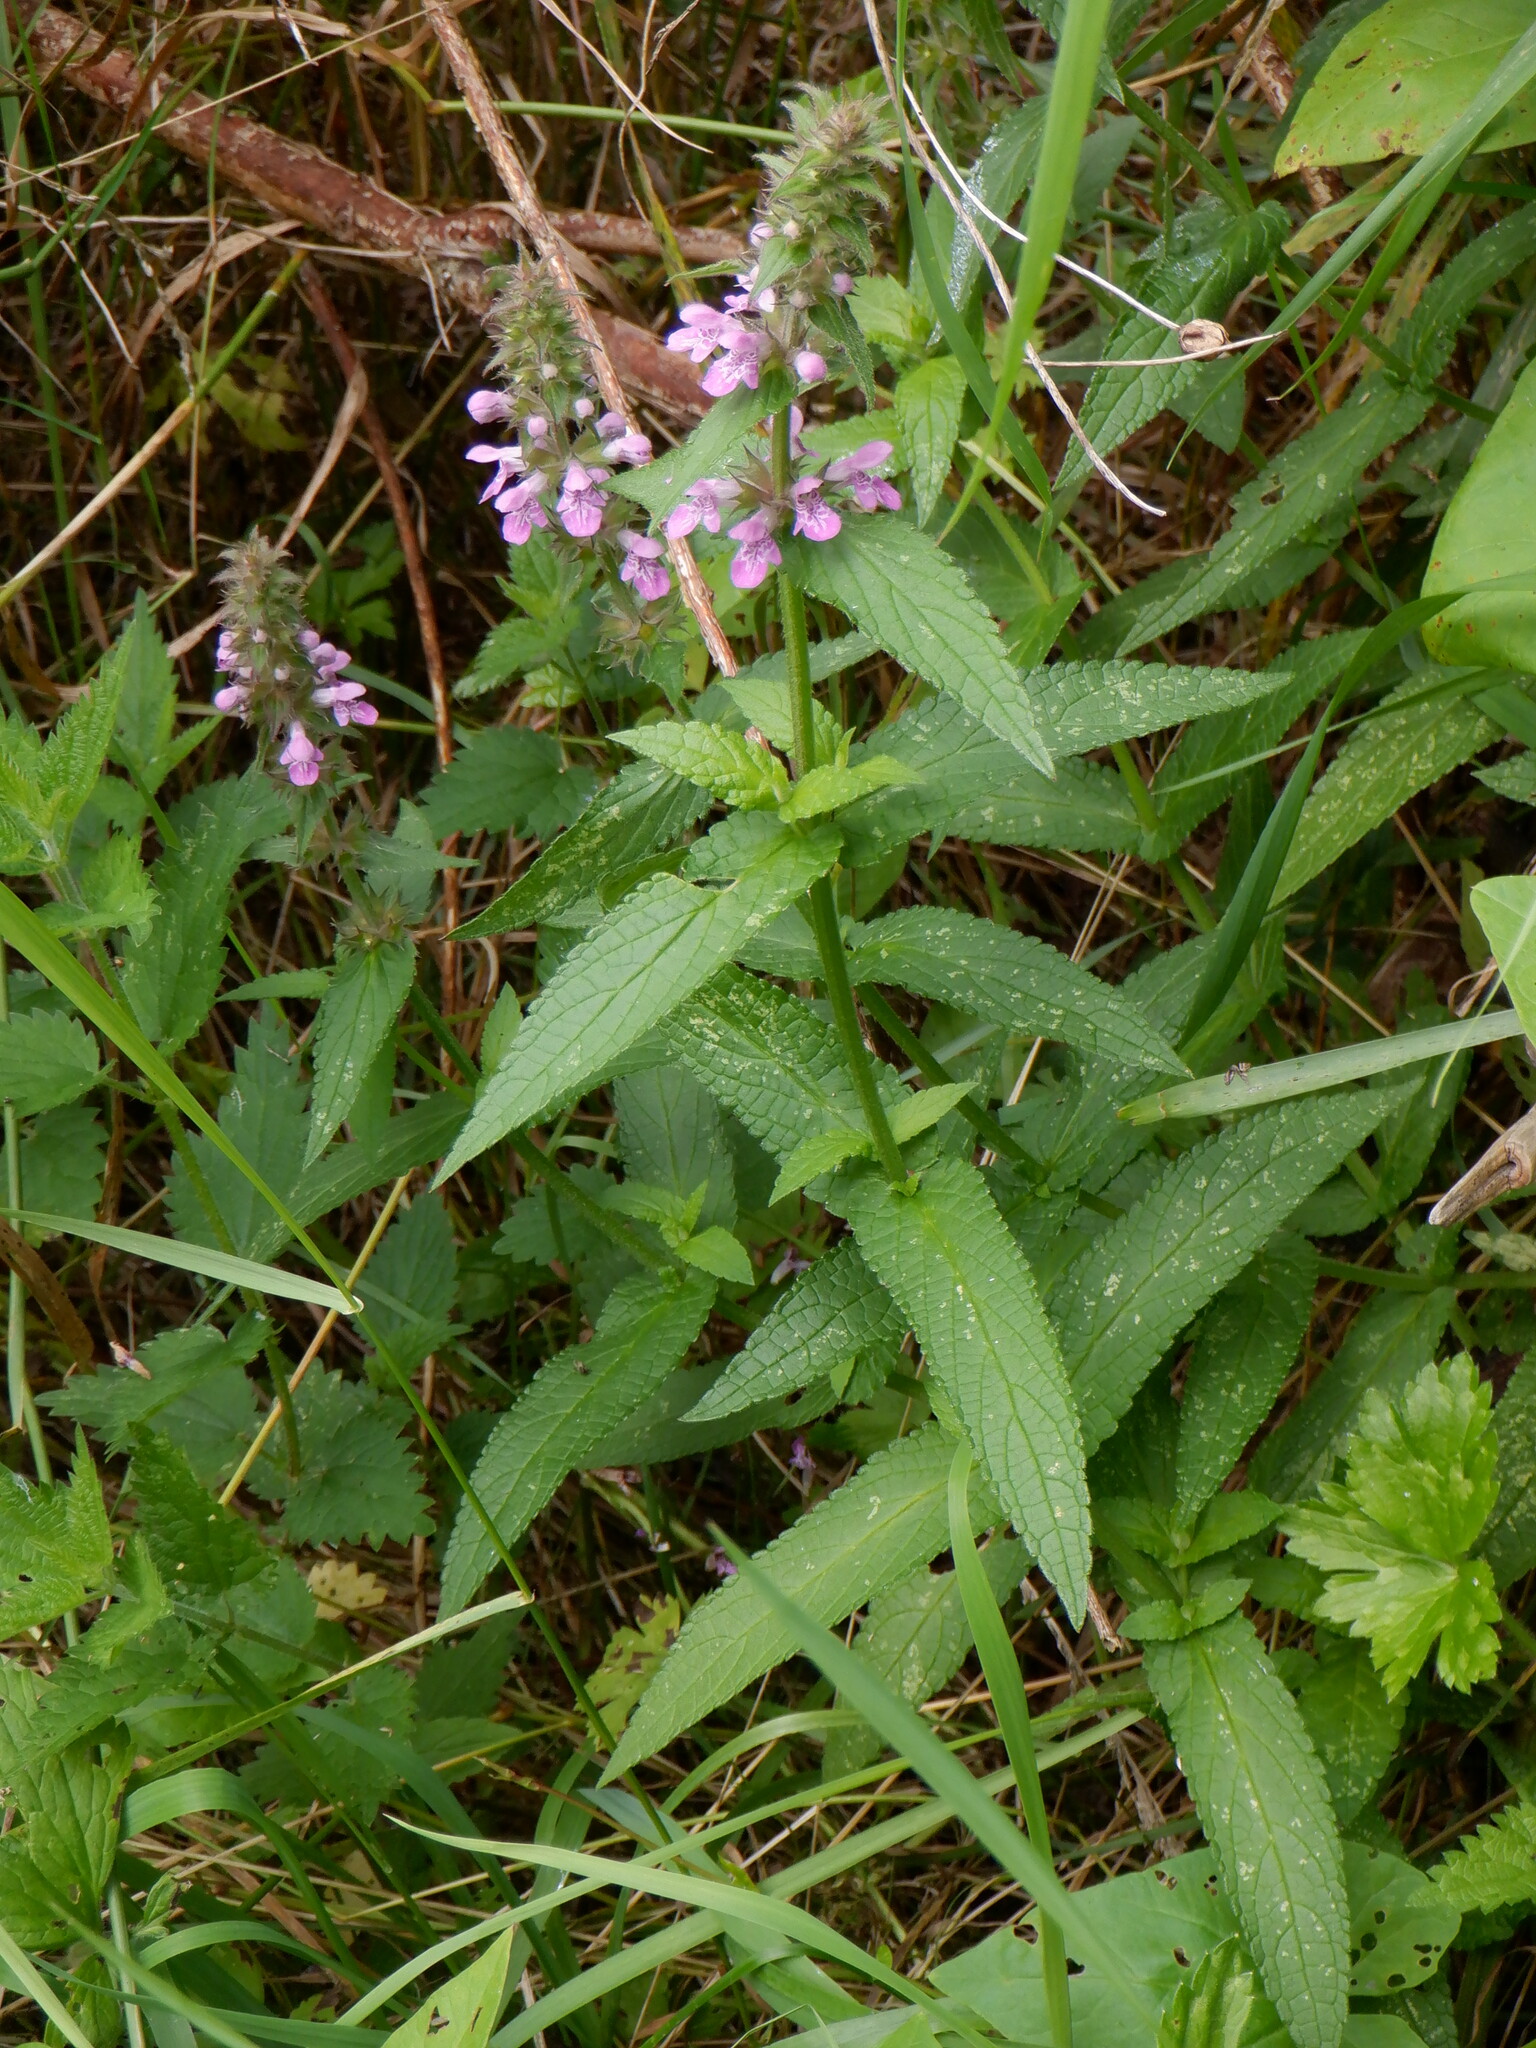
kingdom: Plantae
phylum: Tracheophyta
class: Magnoliopsida
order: Lamiales
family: Lamiaceae
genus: Stachys
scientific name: Stachys palustris
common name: Marsh woundwort
